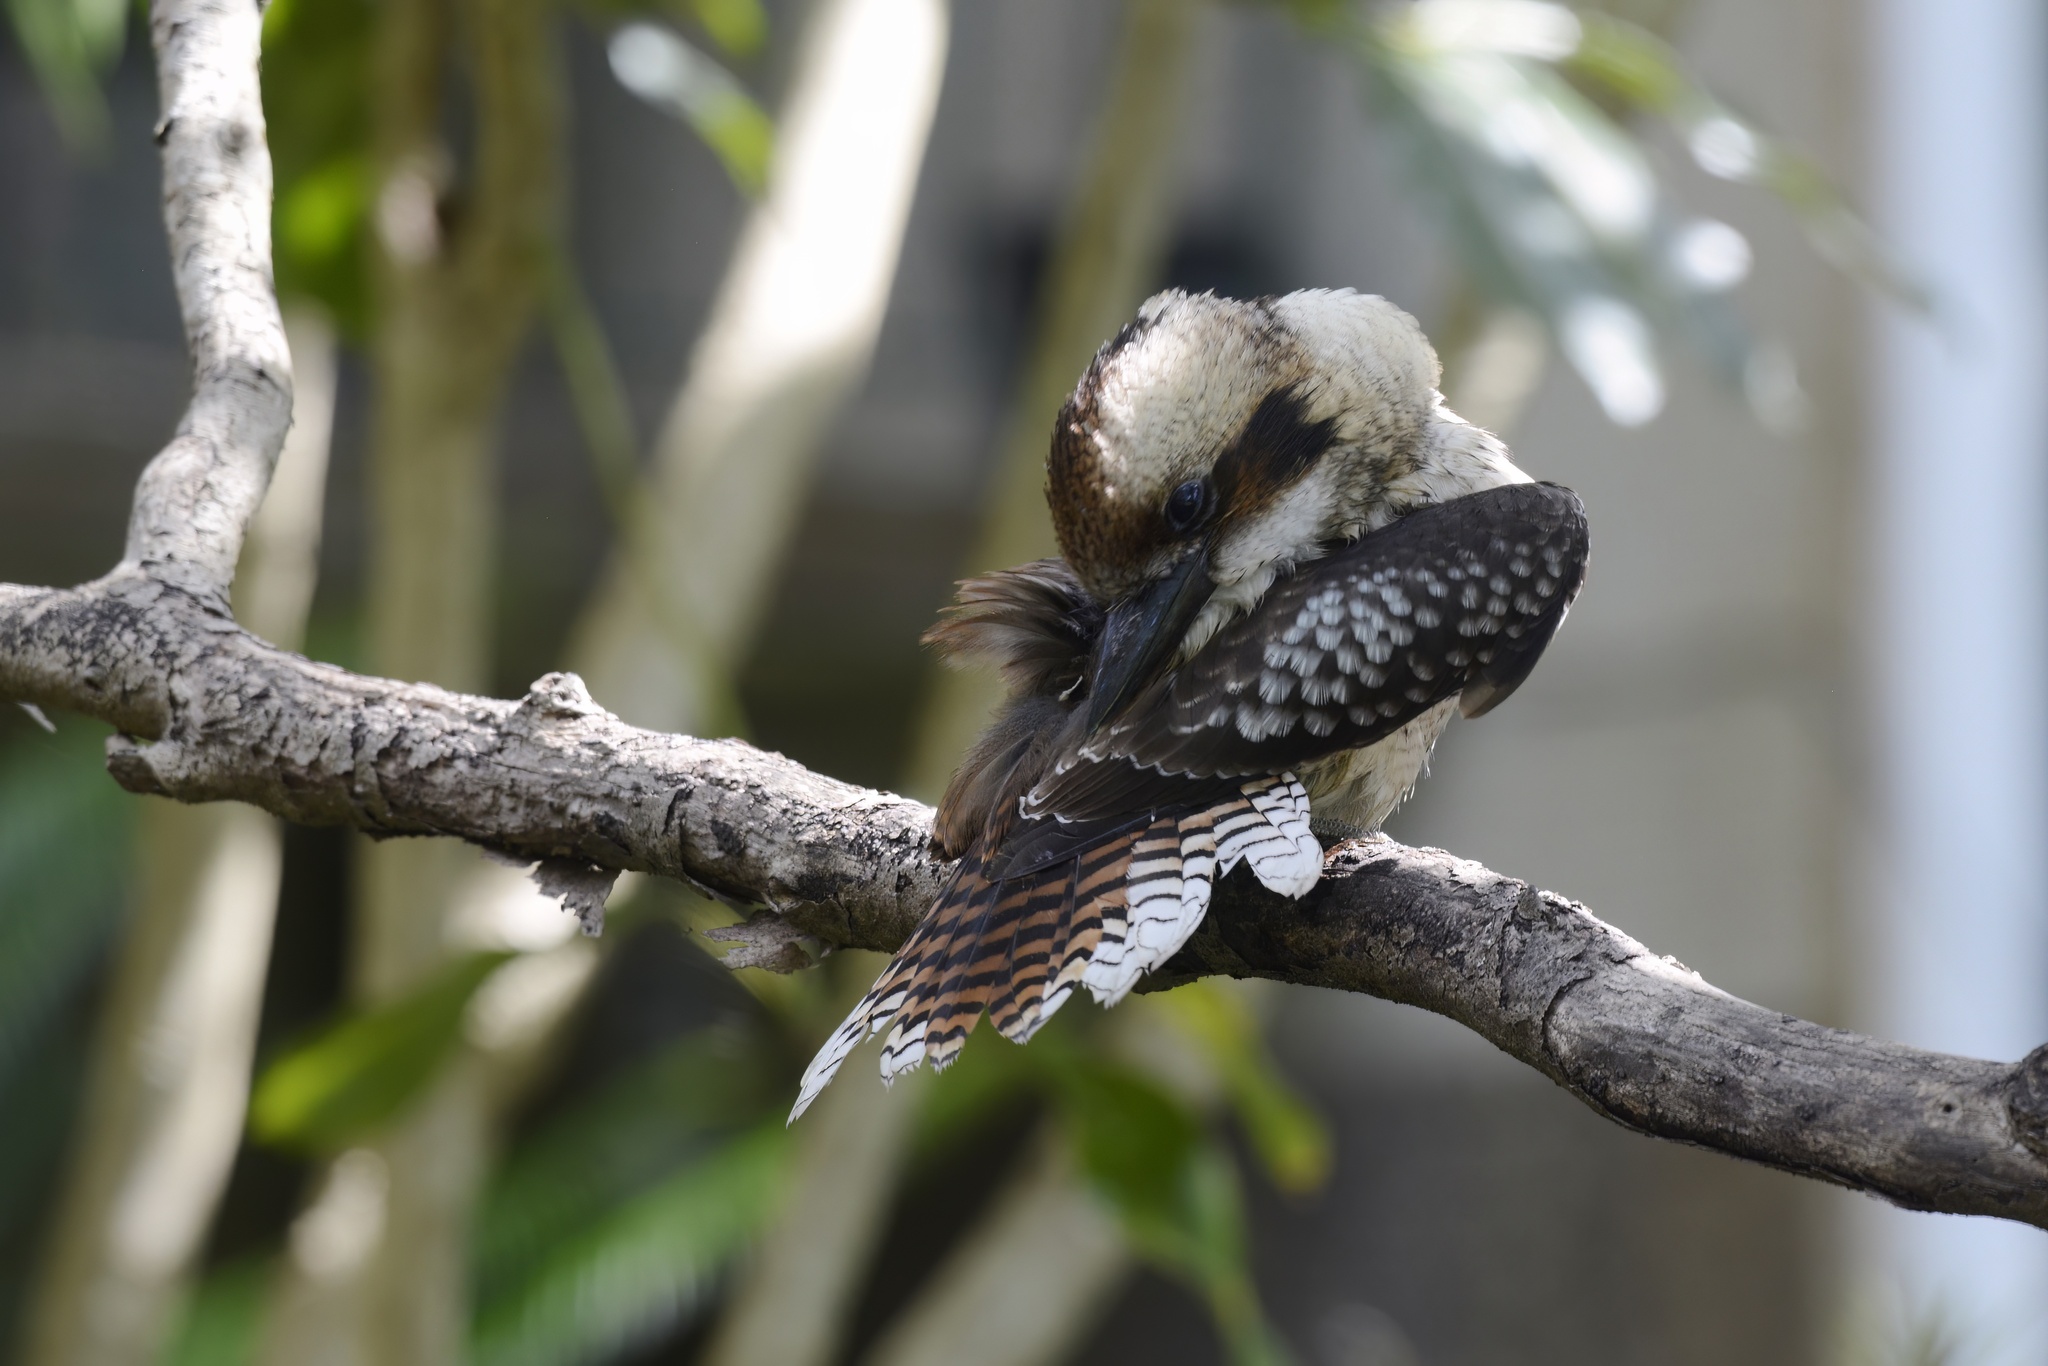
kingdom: Animalia
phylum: Chordata
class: Aves
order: Coraciiformes
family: Alcedinidae
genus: Dacelo
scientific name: Dacelo novaeguineae
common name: Laughing kookaburra
